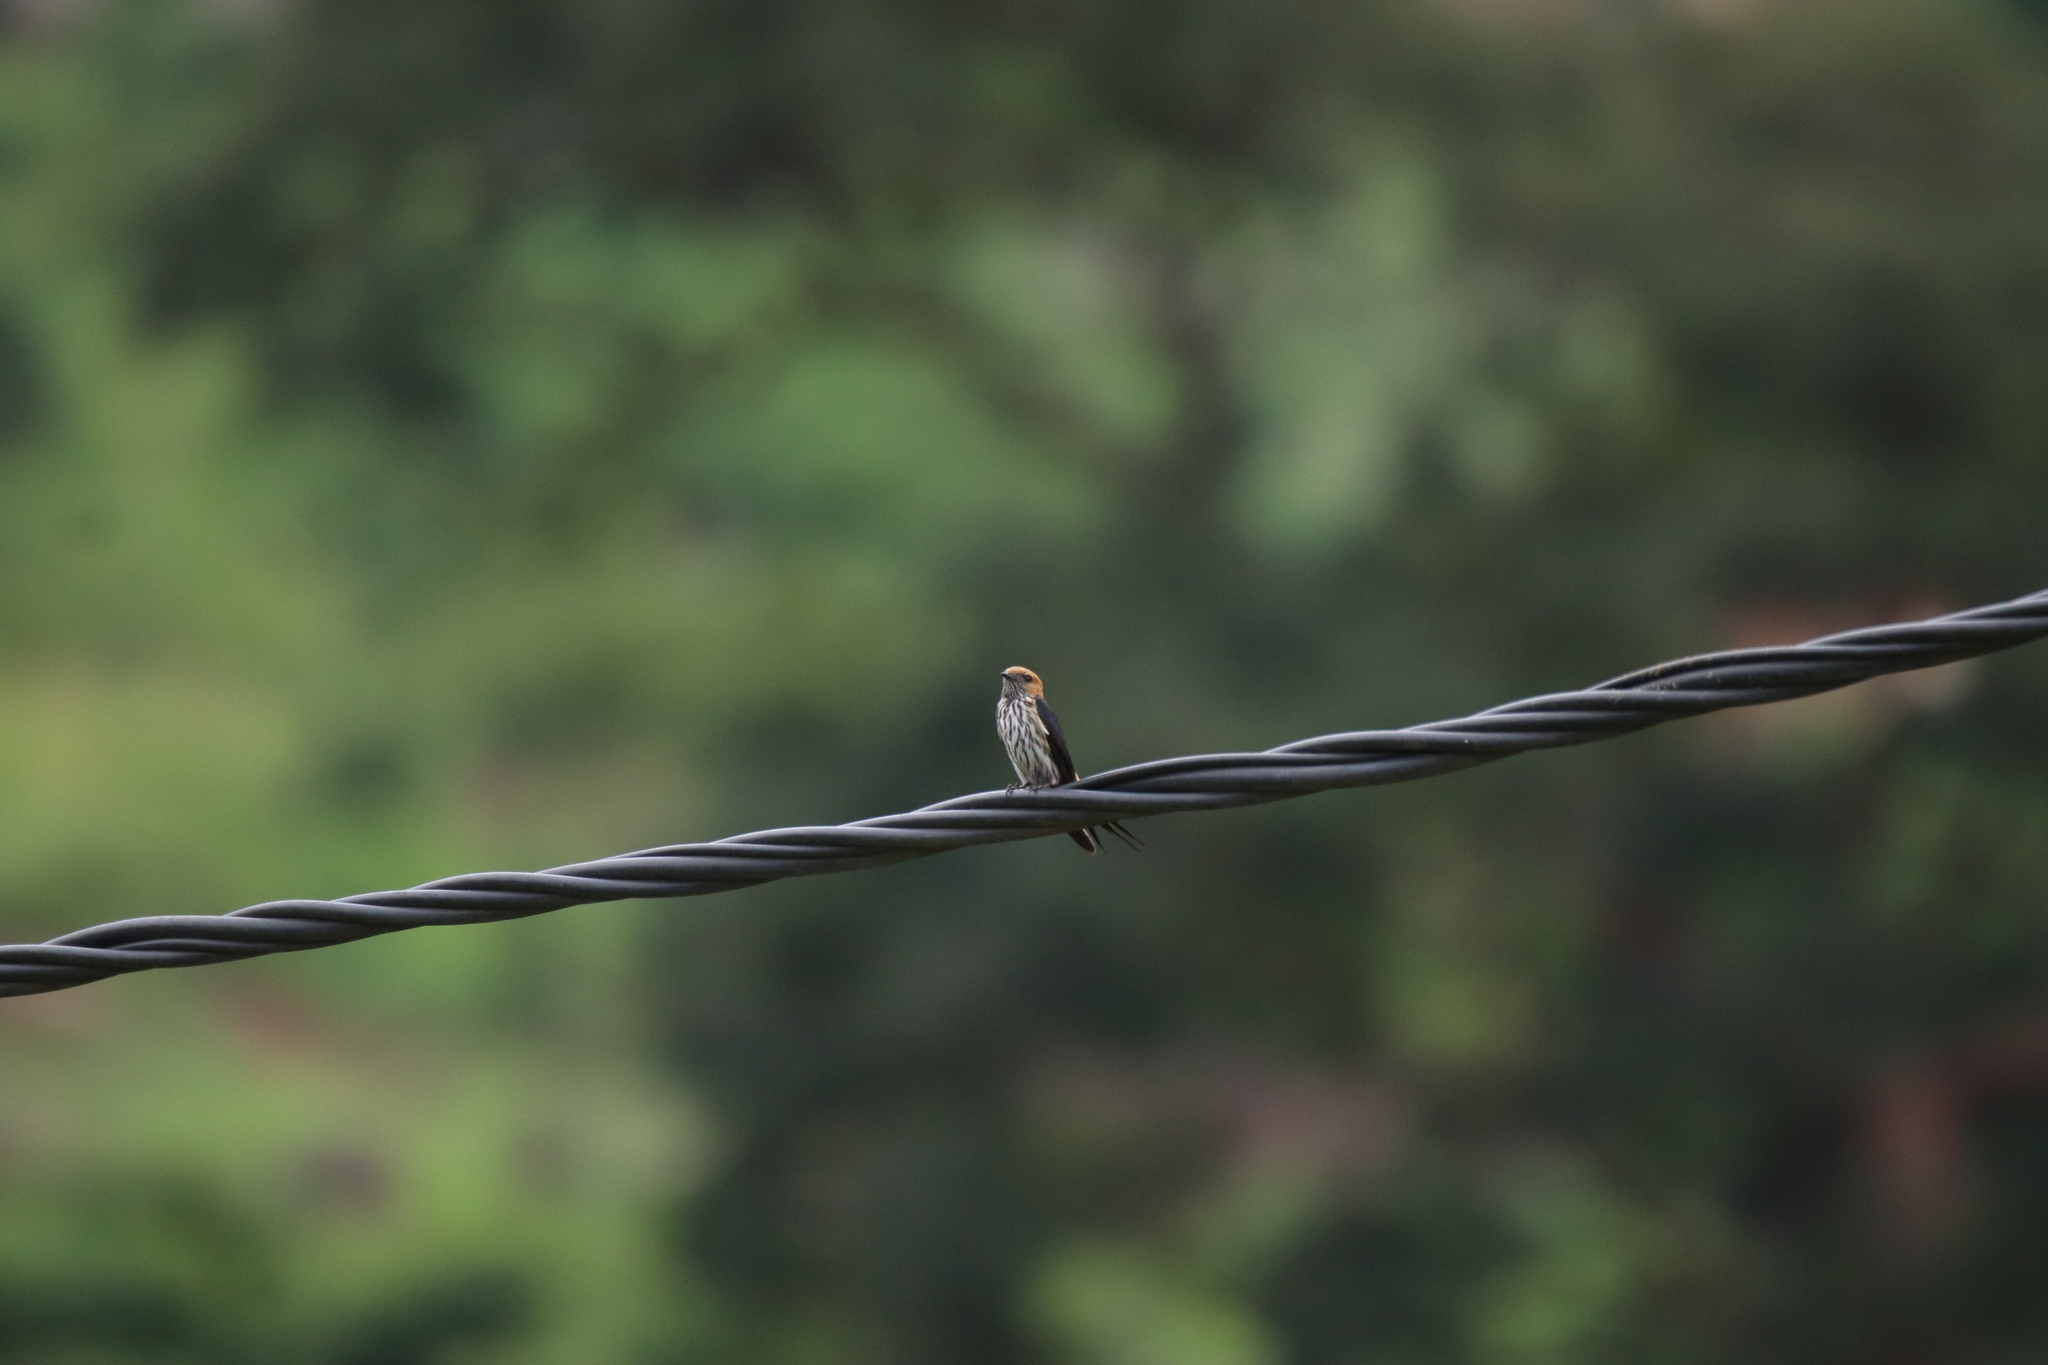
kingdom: Animalia
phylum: Chordata
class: Aves
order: Passeriformes
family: Hirundinidae
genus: Cecropis
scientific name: Cecropis abyssinica
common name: Lesser striped-swallow
